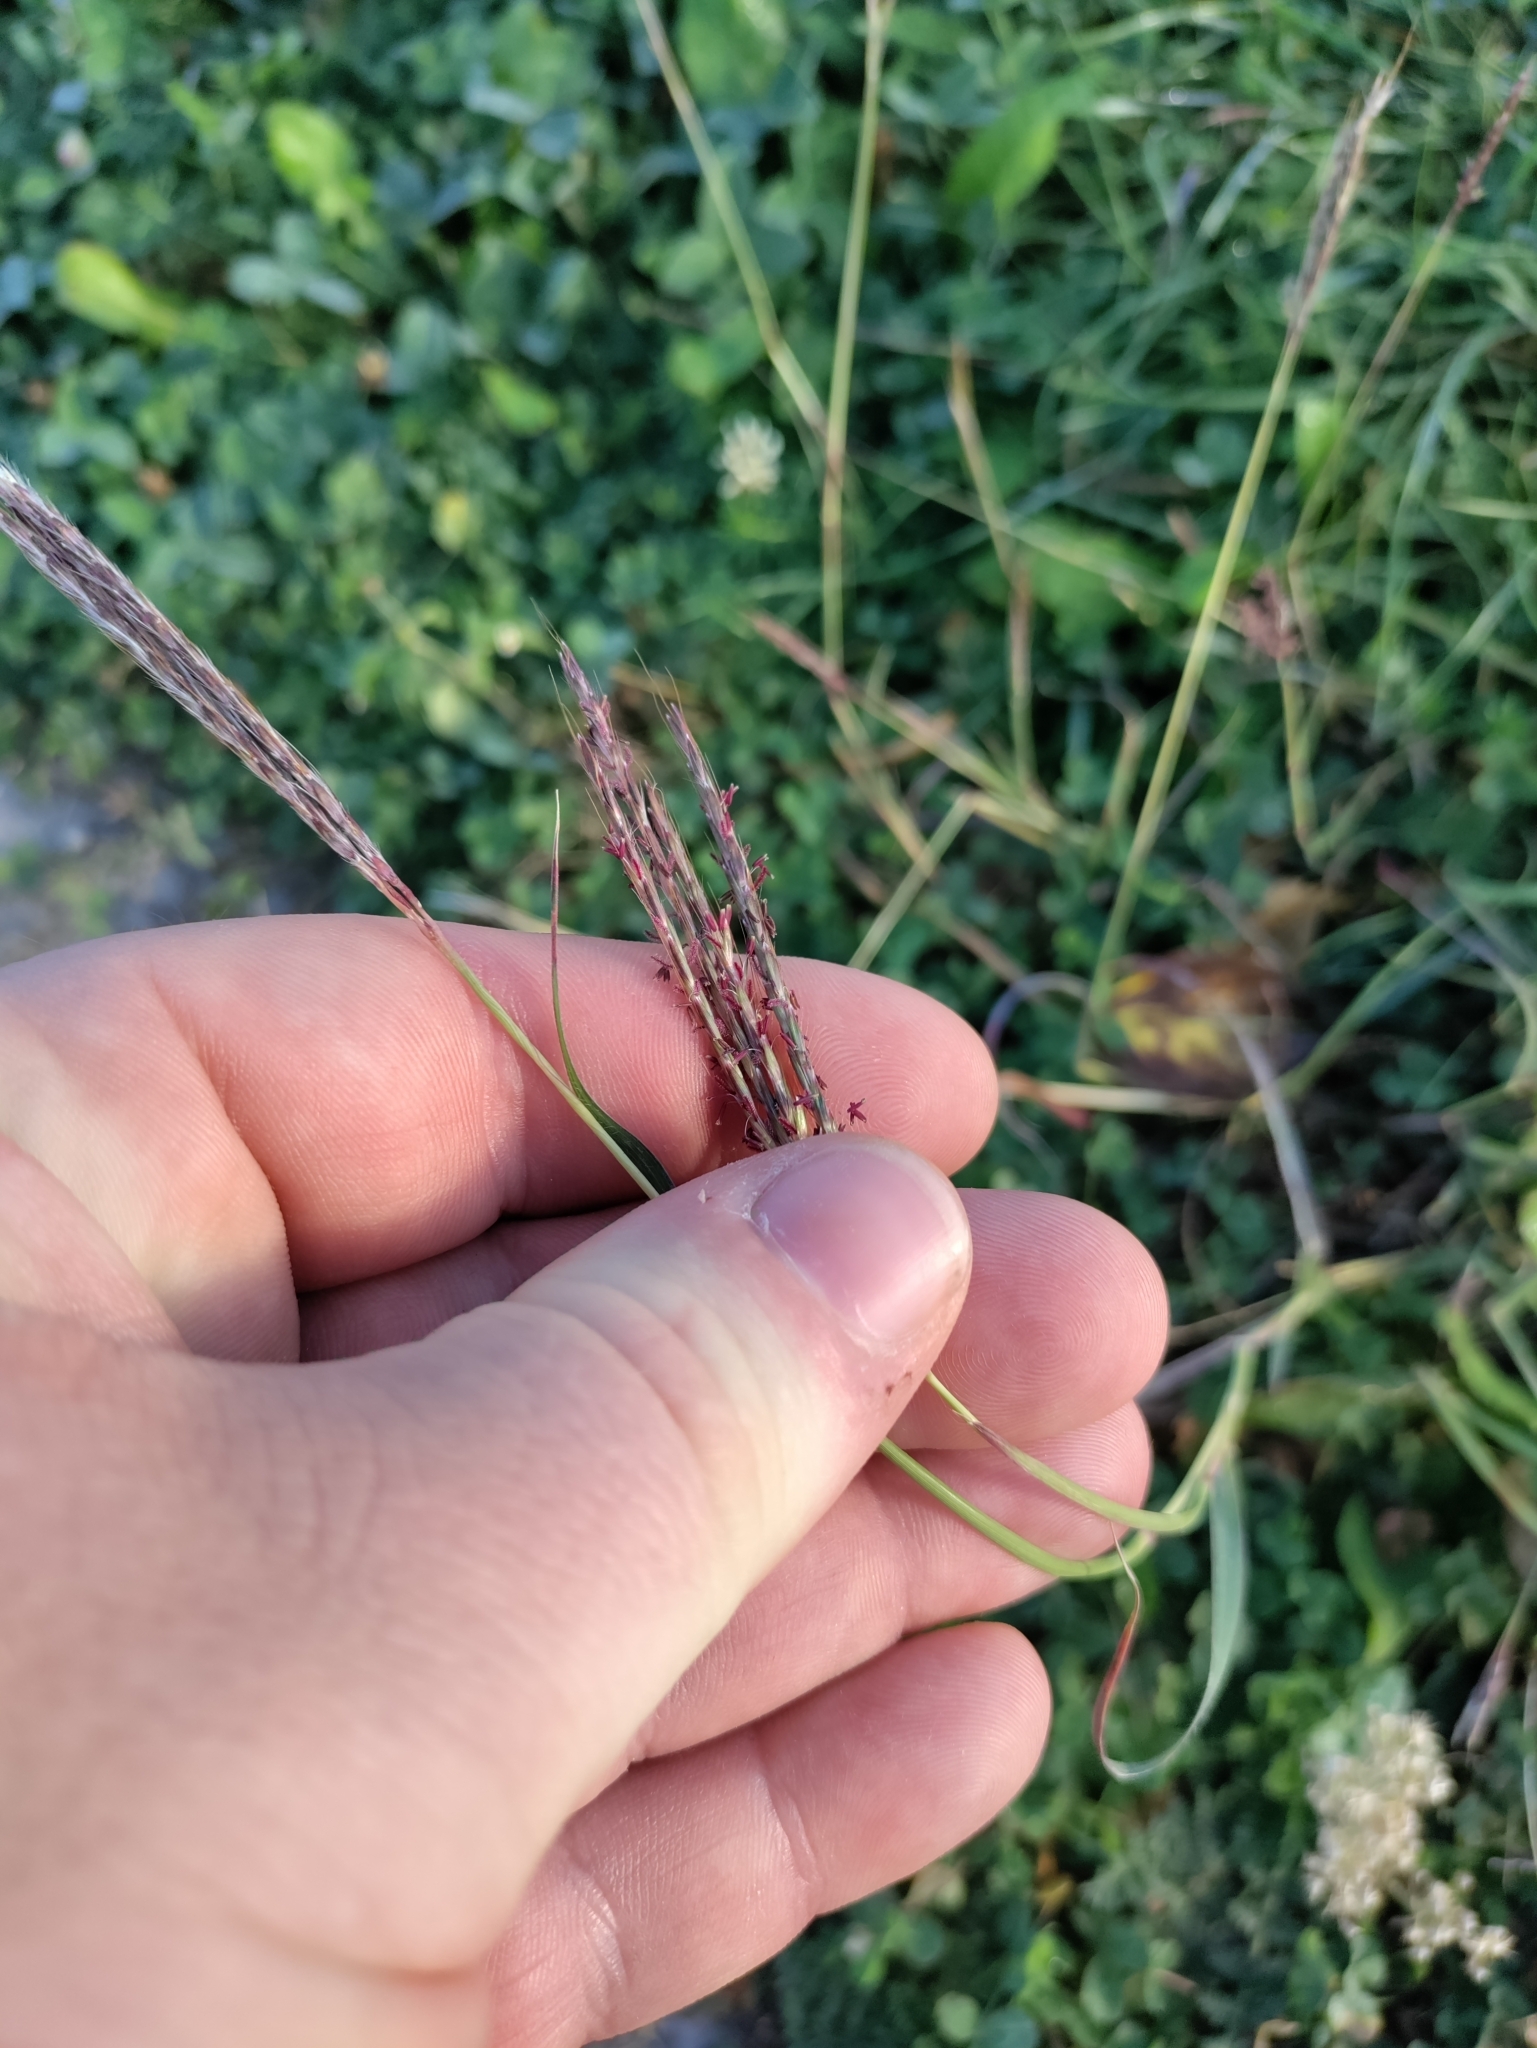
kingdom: Plantae
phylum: Tracheophyta
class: Liliopsida
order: Poales
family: Poaceae
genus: Bothriochloa
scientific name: Bothriochloa ischaemum
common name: Yellow bluestem
